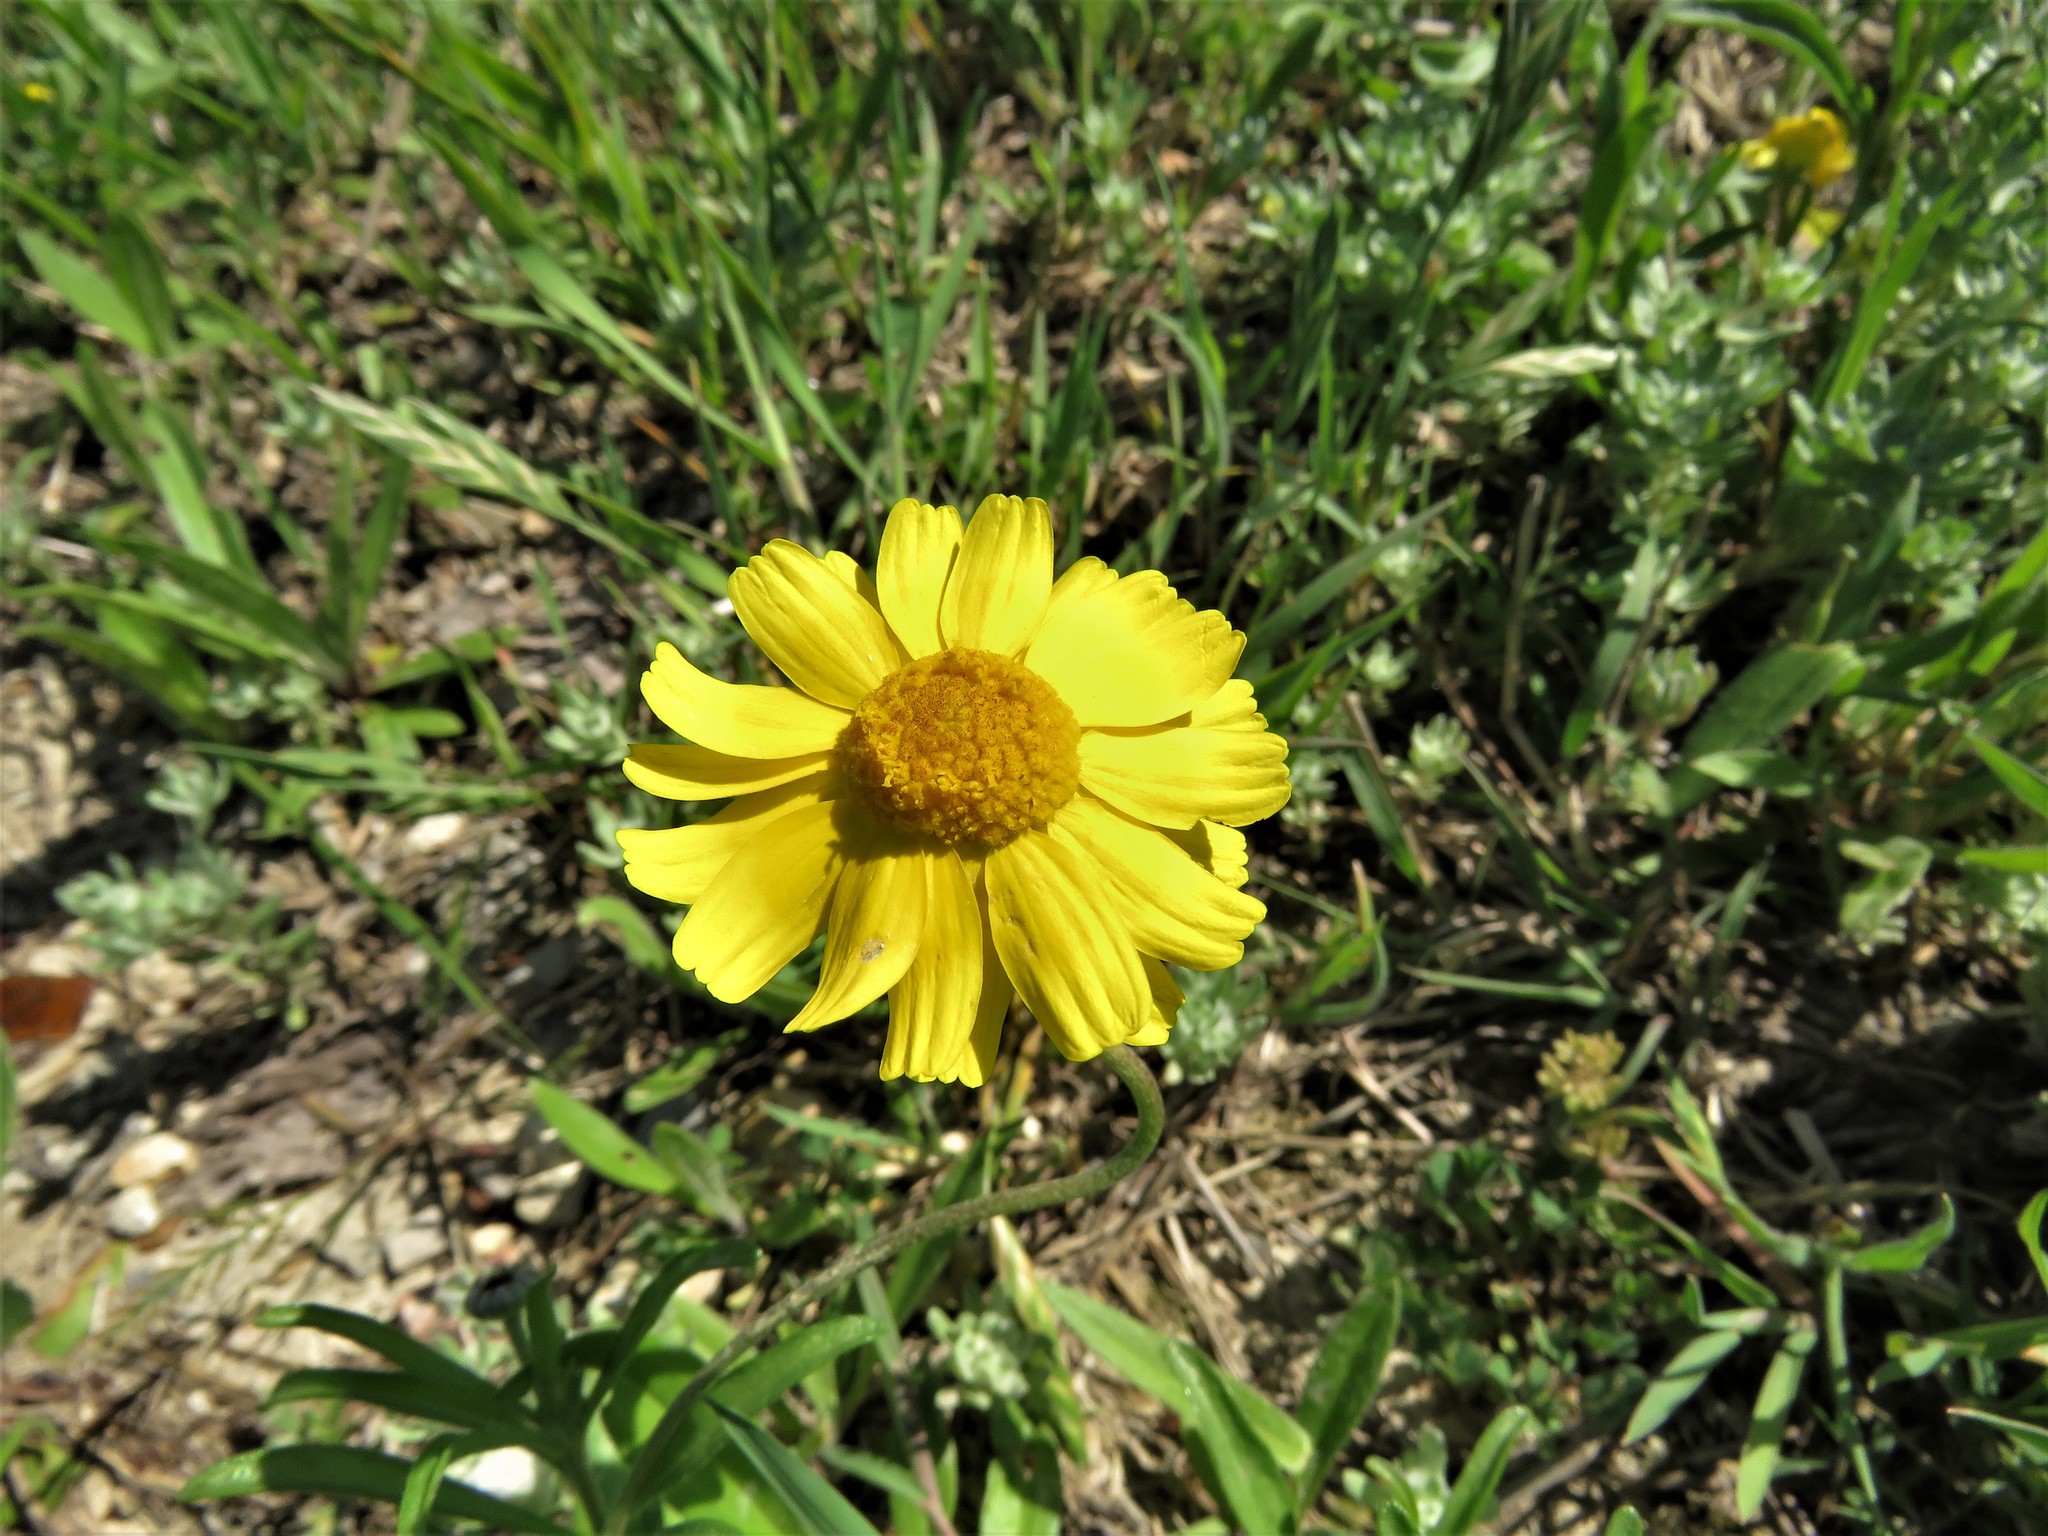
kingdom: Plantae
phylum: Tracheophyta
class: Magnoliopsida
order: Asterales
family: Asteraceae
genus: Tetraneuris
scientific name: Tetraneuris scaposa
